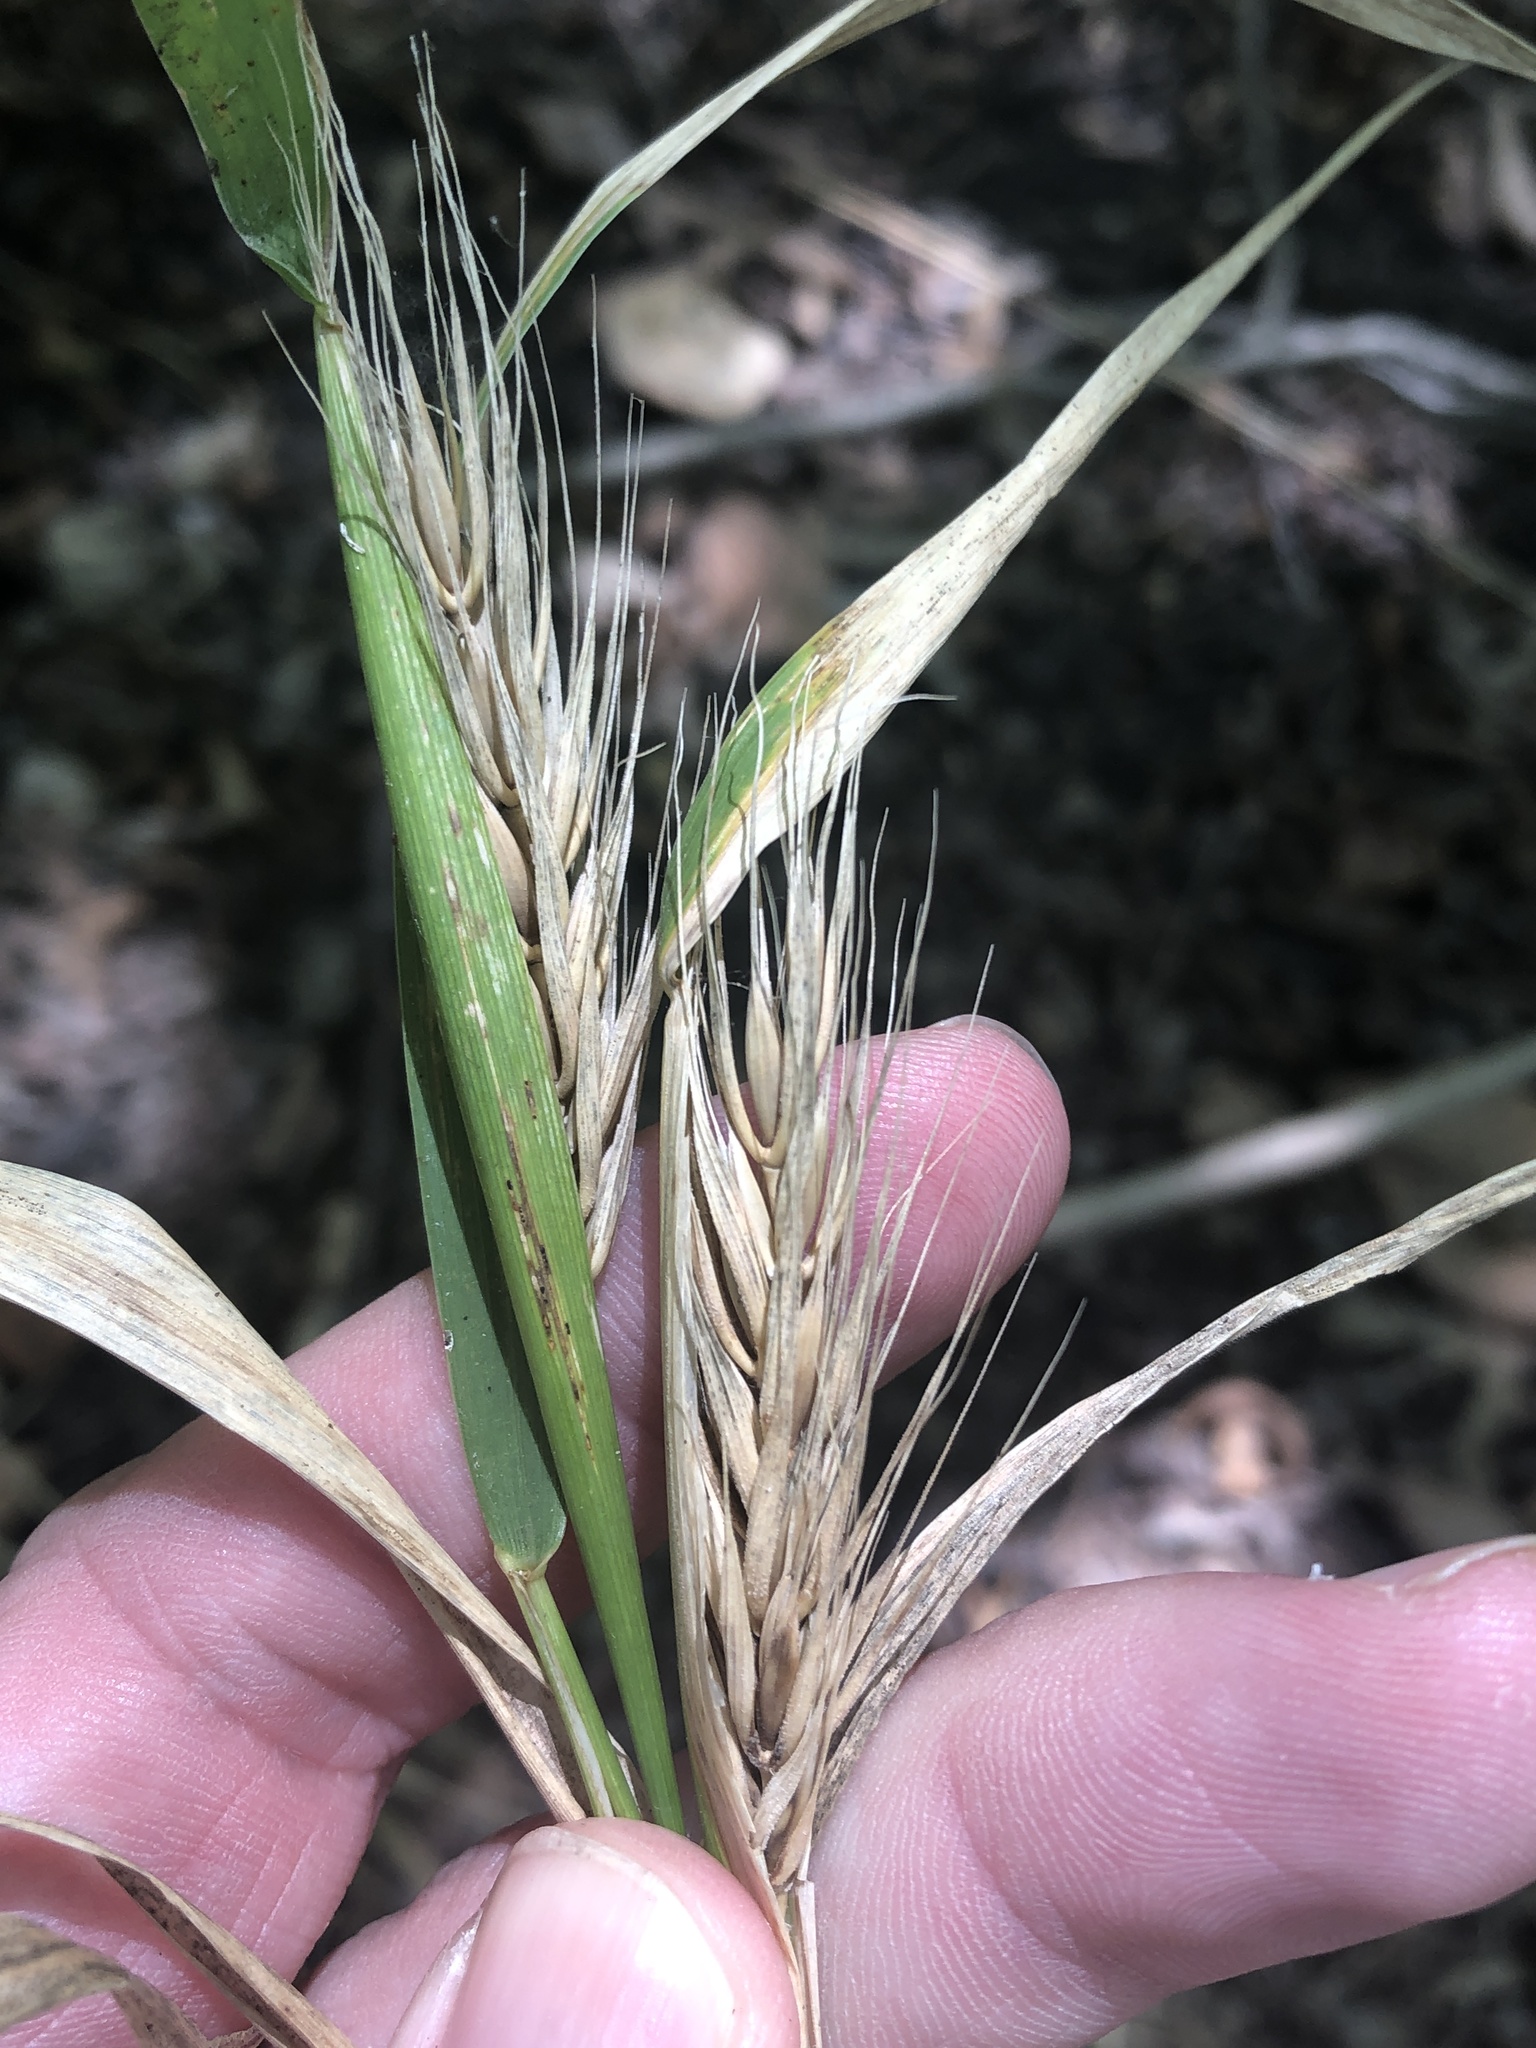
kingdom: Plantae
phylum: Tracheophyta
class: Liliopsida
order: Poales
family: Poaceae
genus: Elymus
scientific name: Elymus virginicus
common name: Common eastern wildrye
